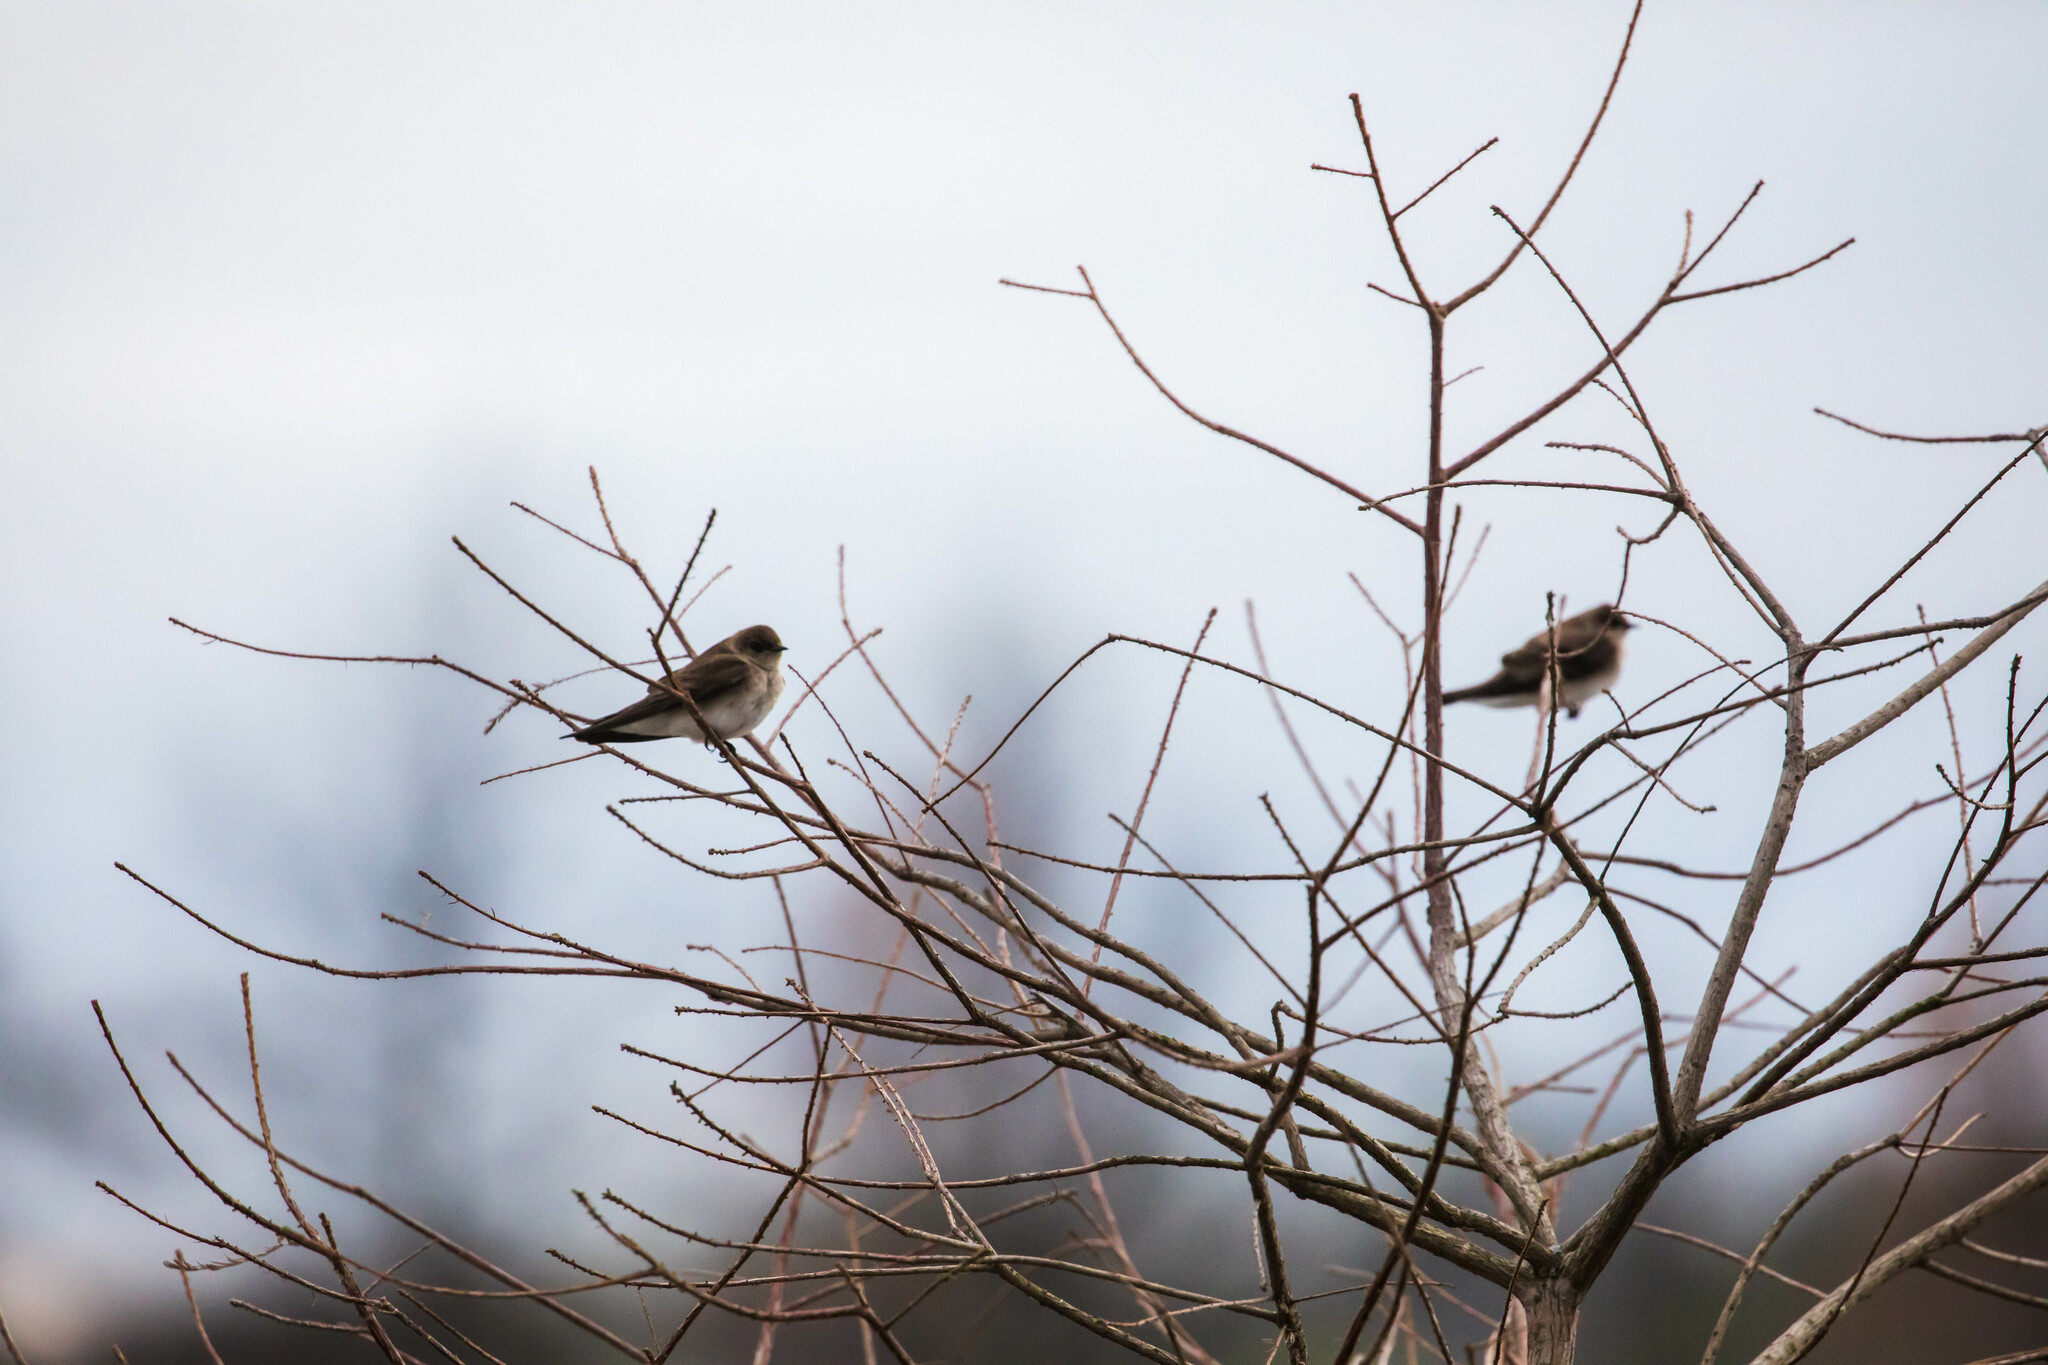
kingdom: Animalia
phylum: Chordata
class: Aves
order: Passeriformes
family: Hirundinidae
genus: Stelgidopteryx
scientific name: Stelgidopteryx serripennis
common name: Northern rough-winged swallow
